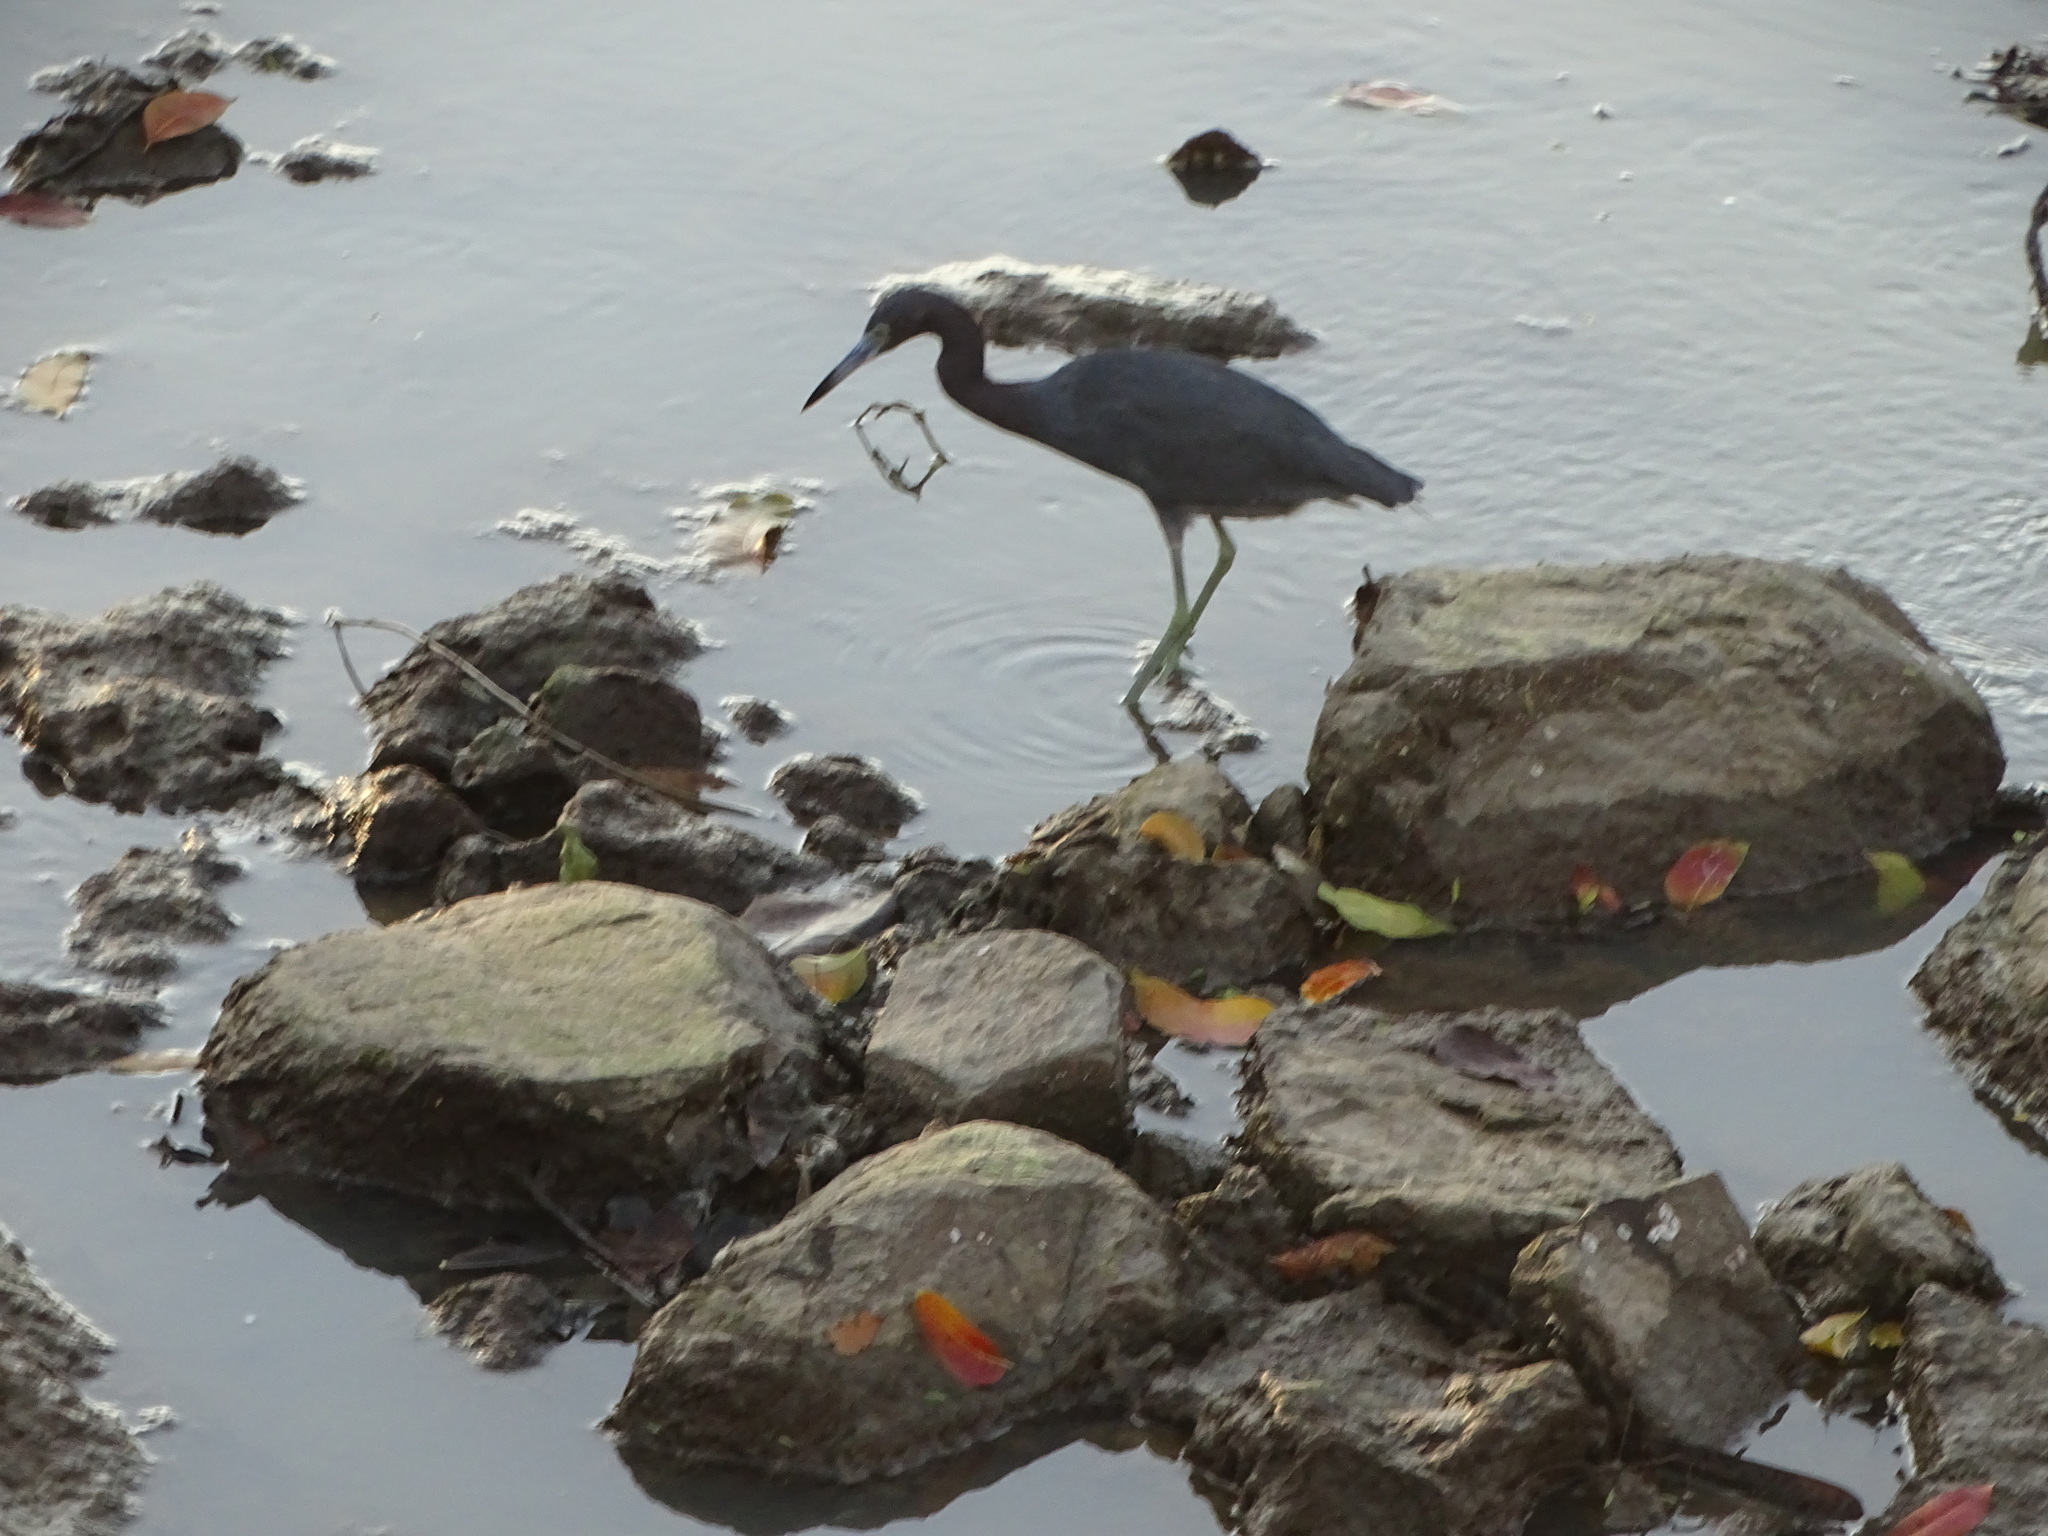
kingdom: Animalia
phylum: Chordata
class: Aves
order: Pelecaniformes
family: Ardeidae
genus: Egretta
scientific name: Egretta caerulea
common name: Little blue heron
